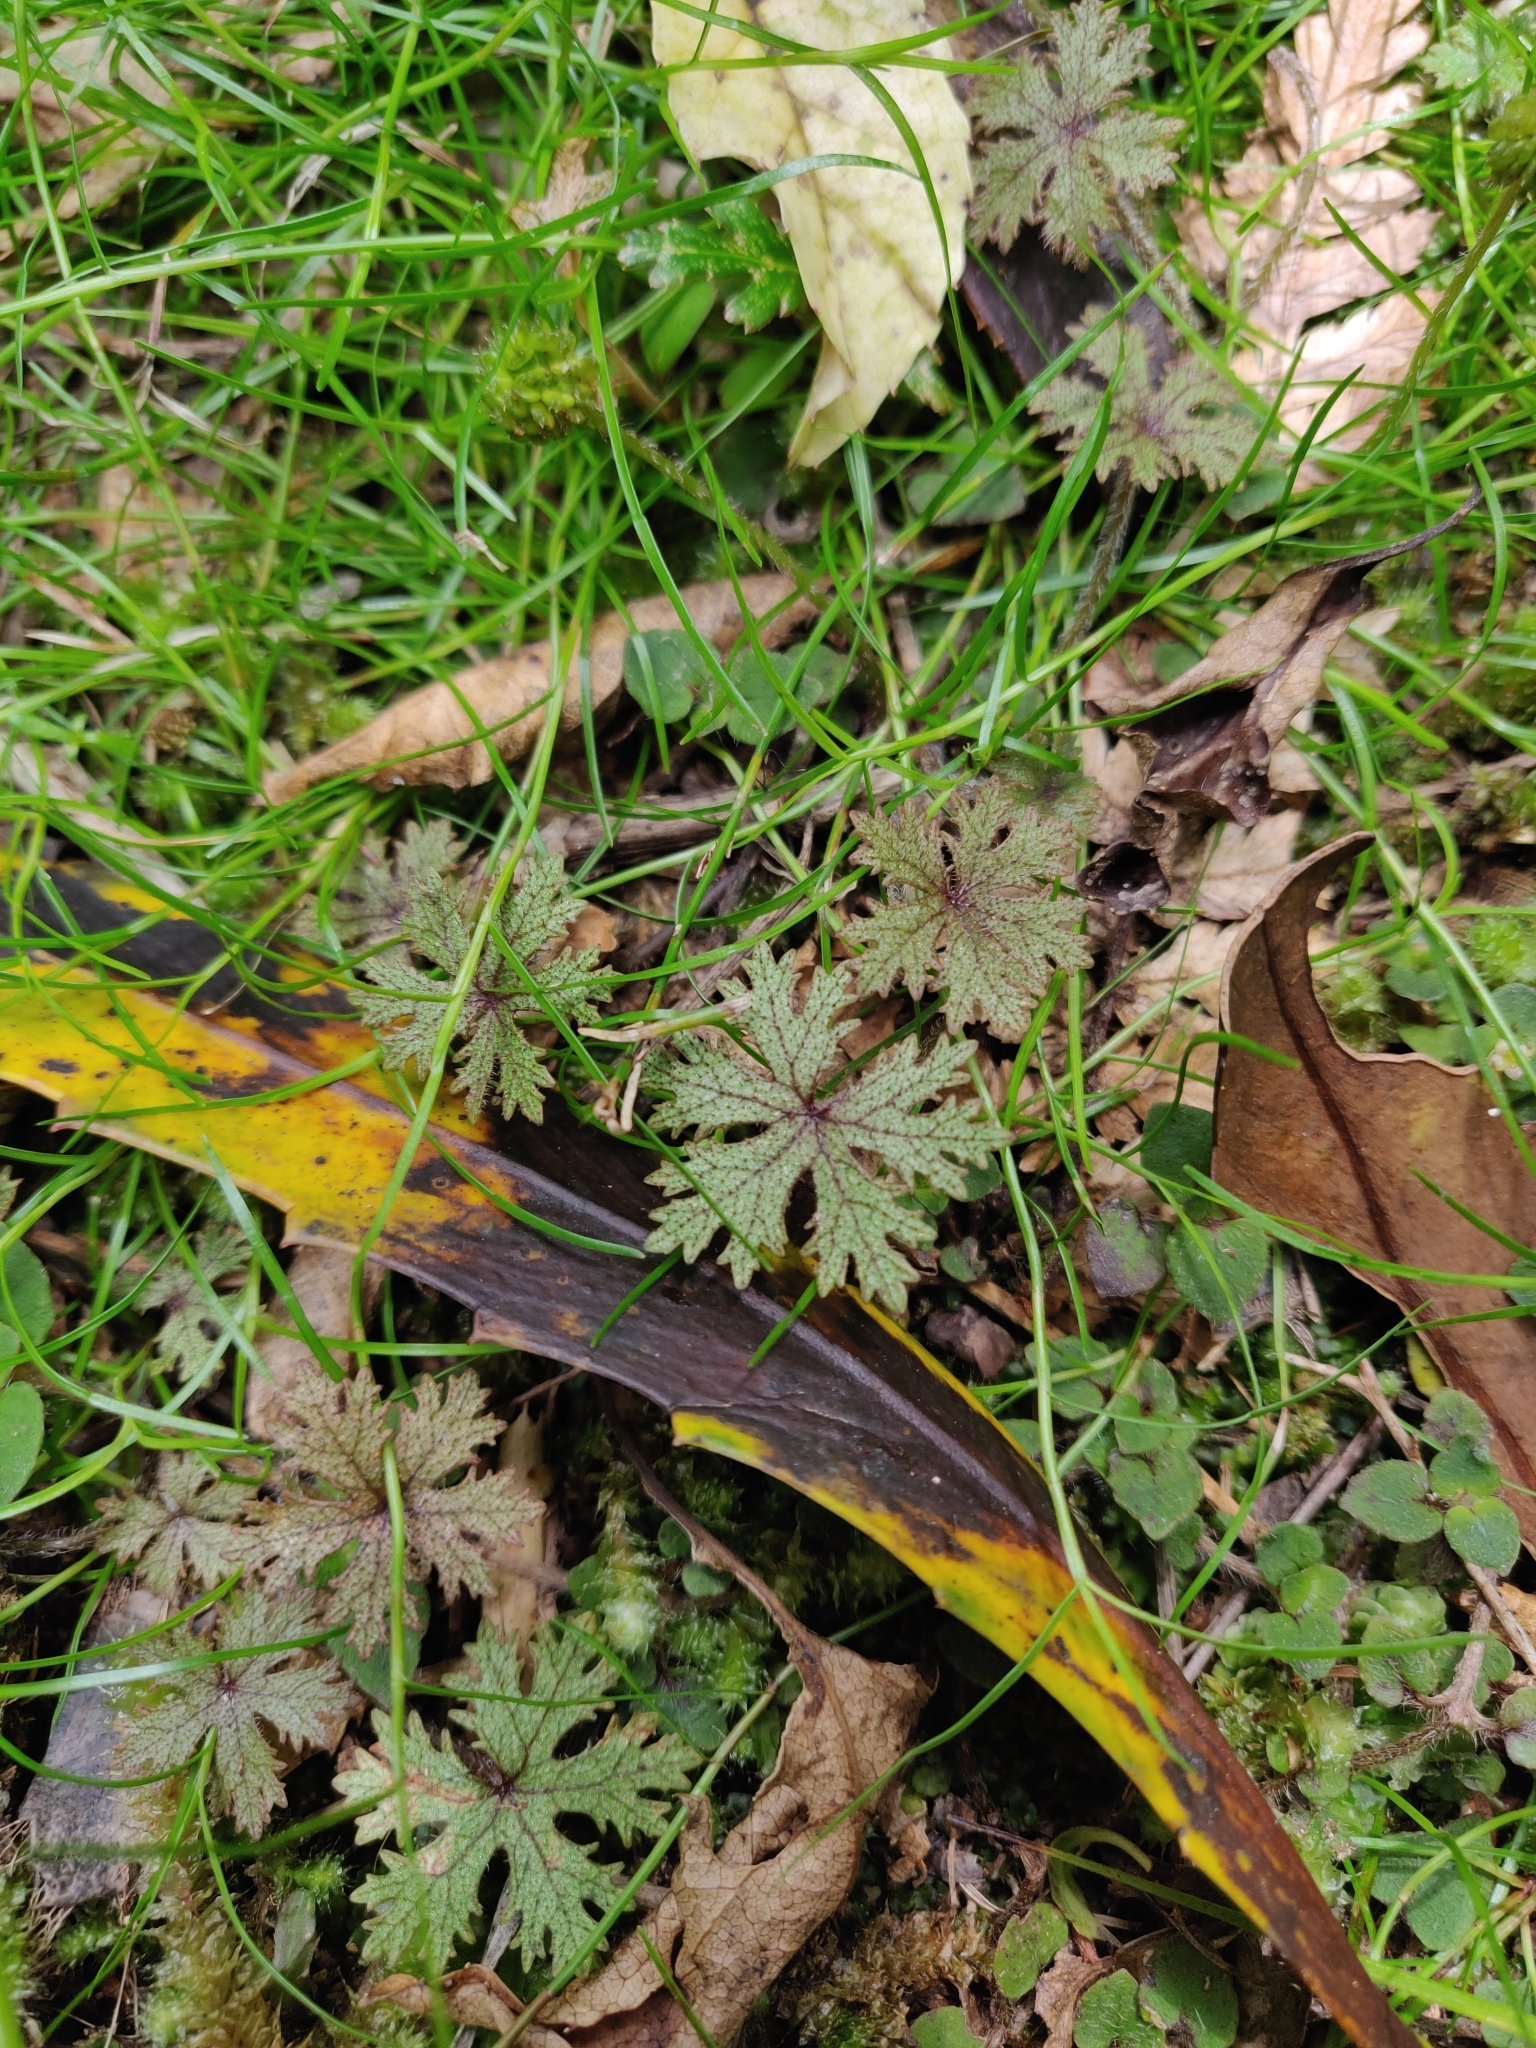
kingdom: Plantae
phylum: Tracheophyta
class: Magnoliopsida
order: Apiales
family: Araliaceae
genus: Hydrocotyle
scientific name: Hydrocotyle dissecta
